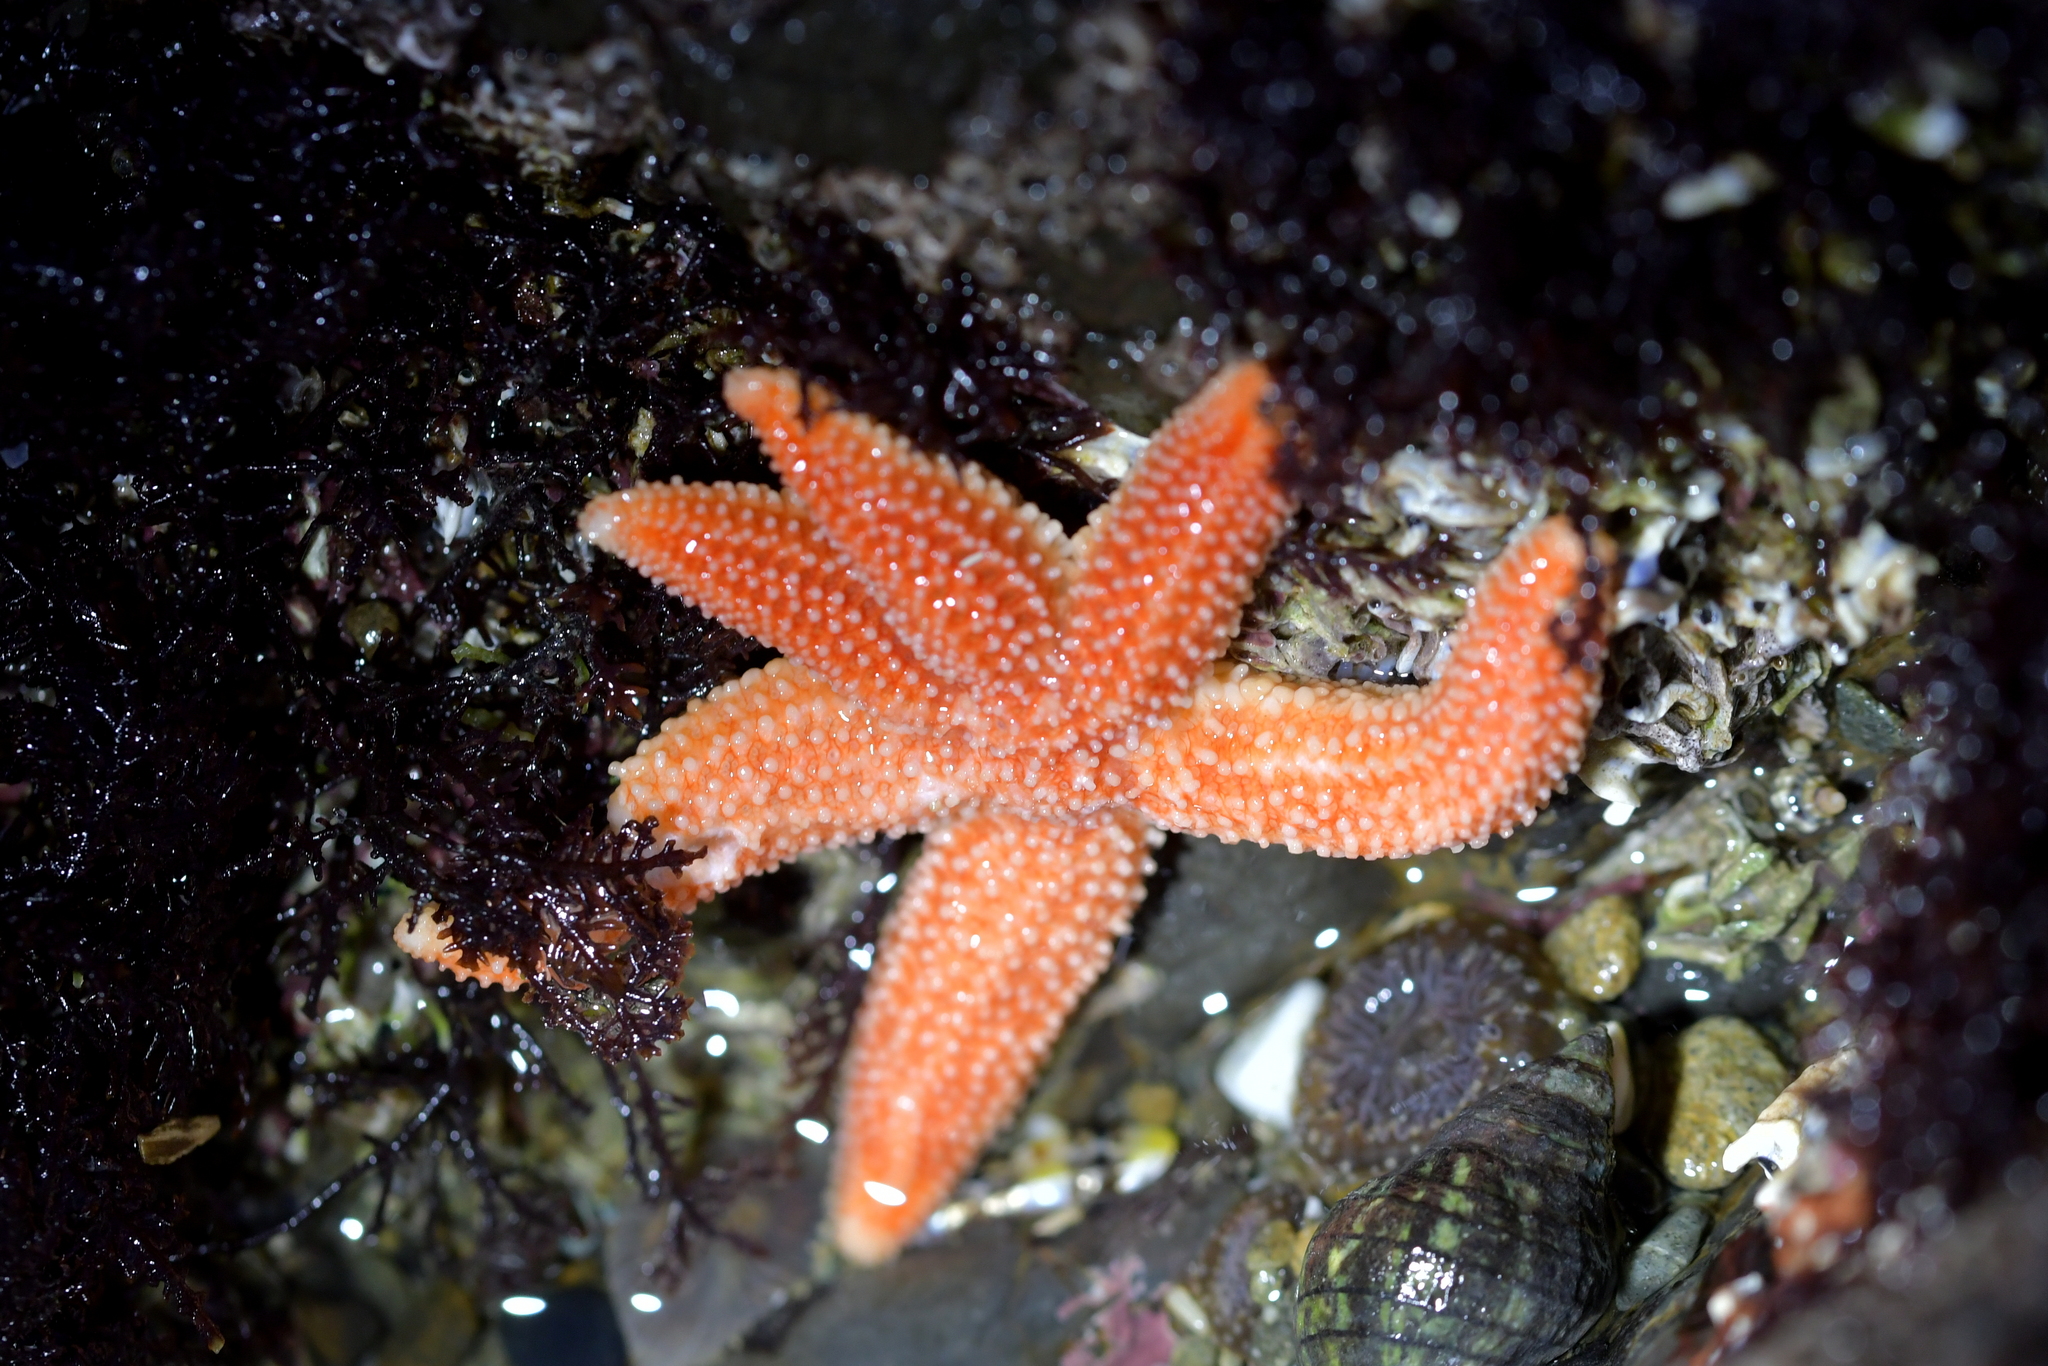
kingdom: Animalia
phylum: Echinodermata
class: Asteroidea
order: Forcipulatida
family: Stichasteridae
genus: Allostichaster
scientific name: Allostichaster insignis
